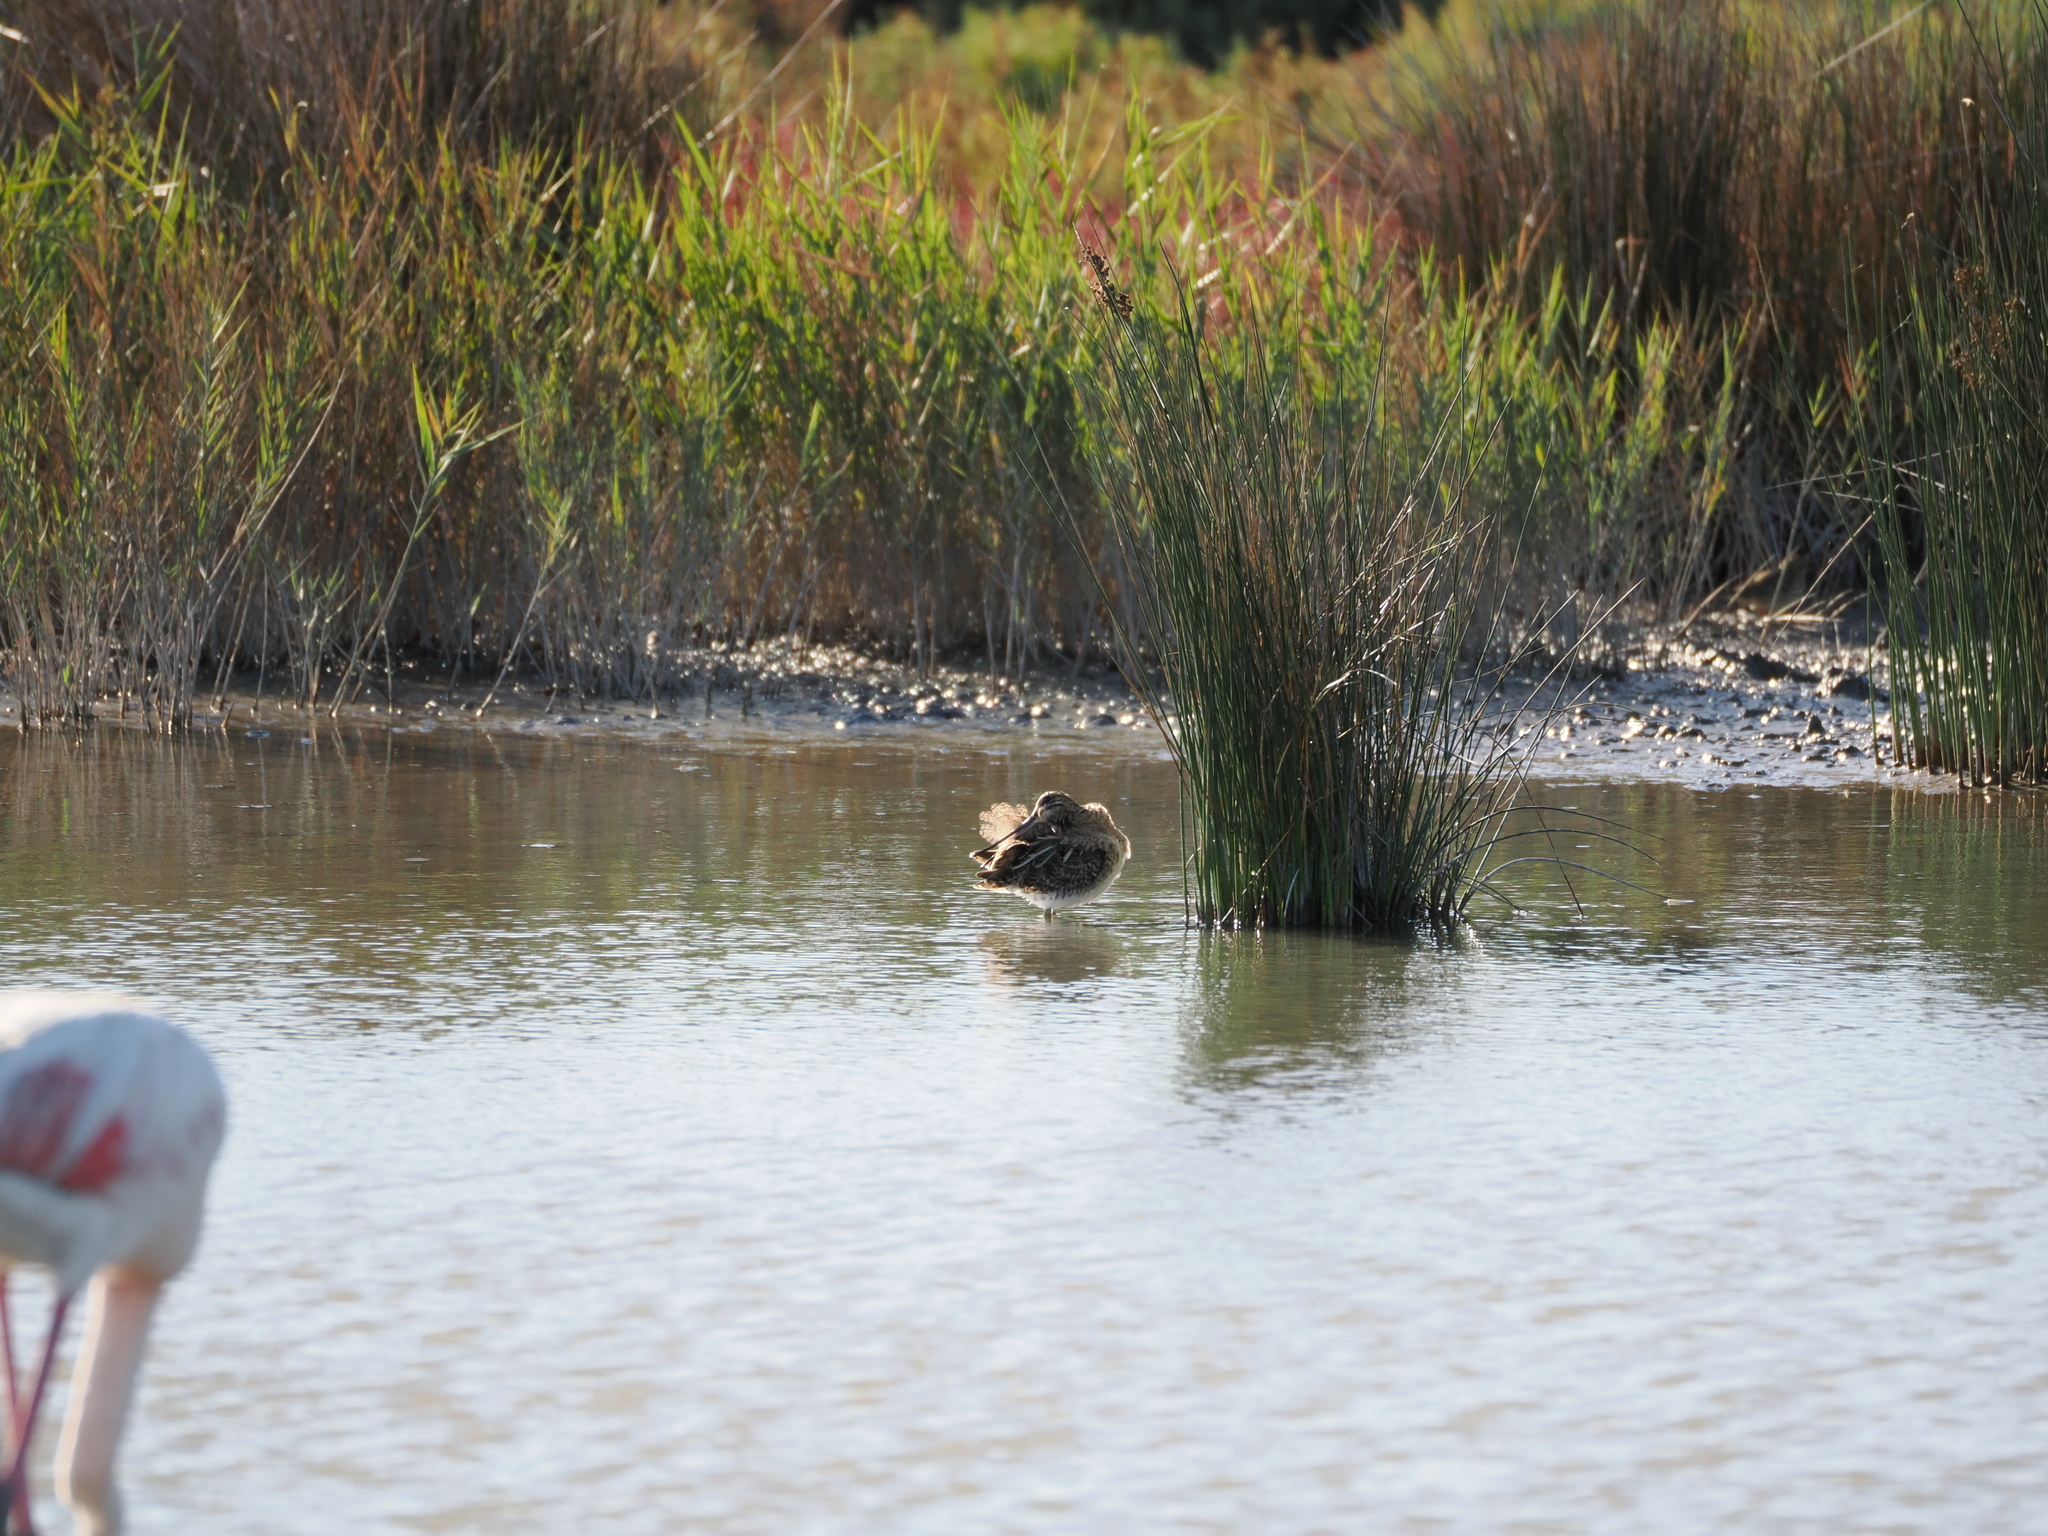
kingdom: Animalia
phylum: Chordata
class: Aves
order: Charadriiformes
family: Scolopacidae
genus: Gallinago
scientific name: Gallinago gallinago
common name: Common snipe
